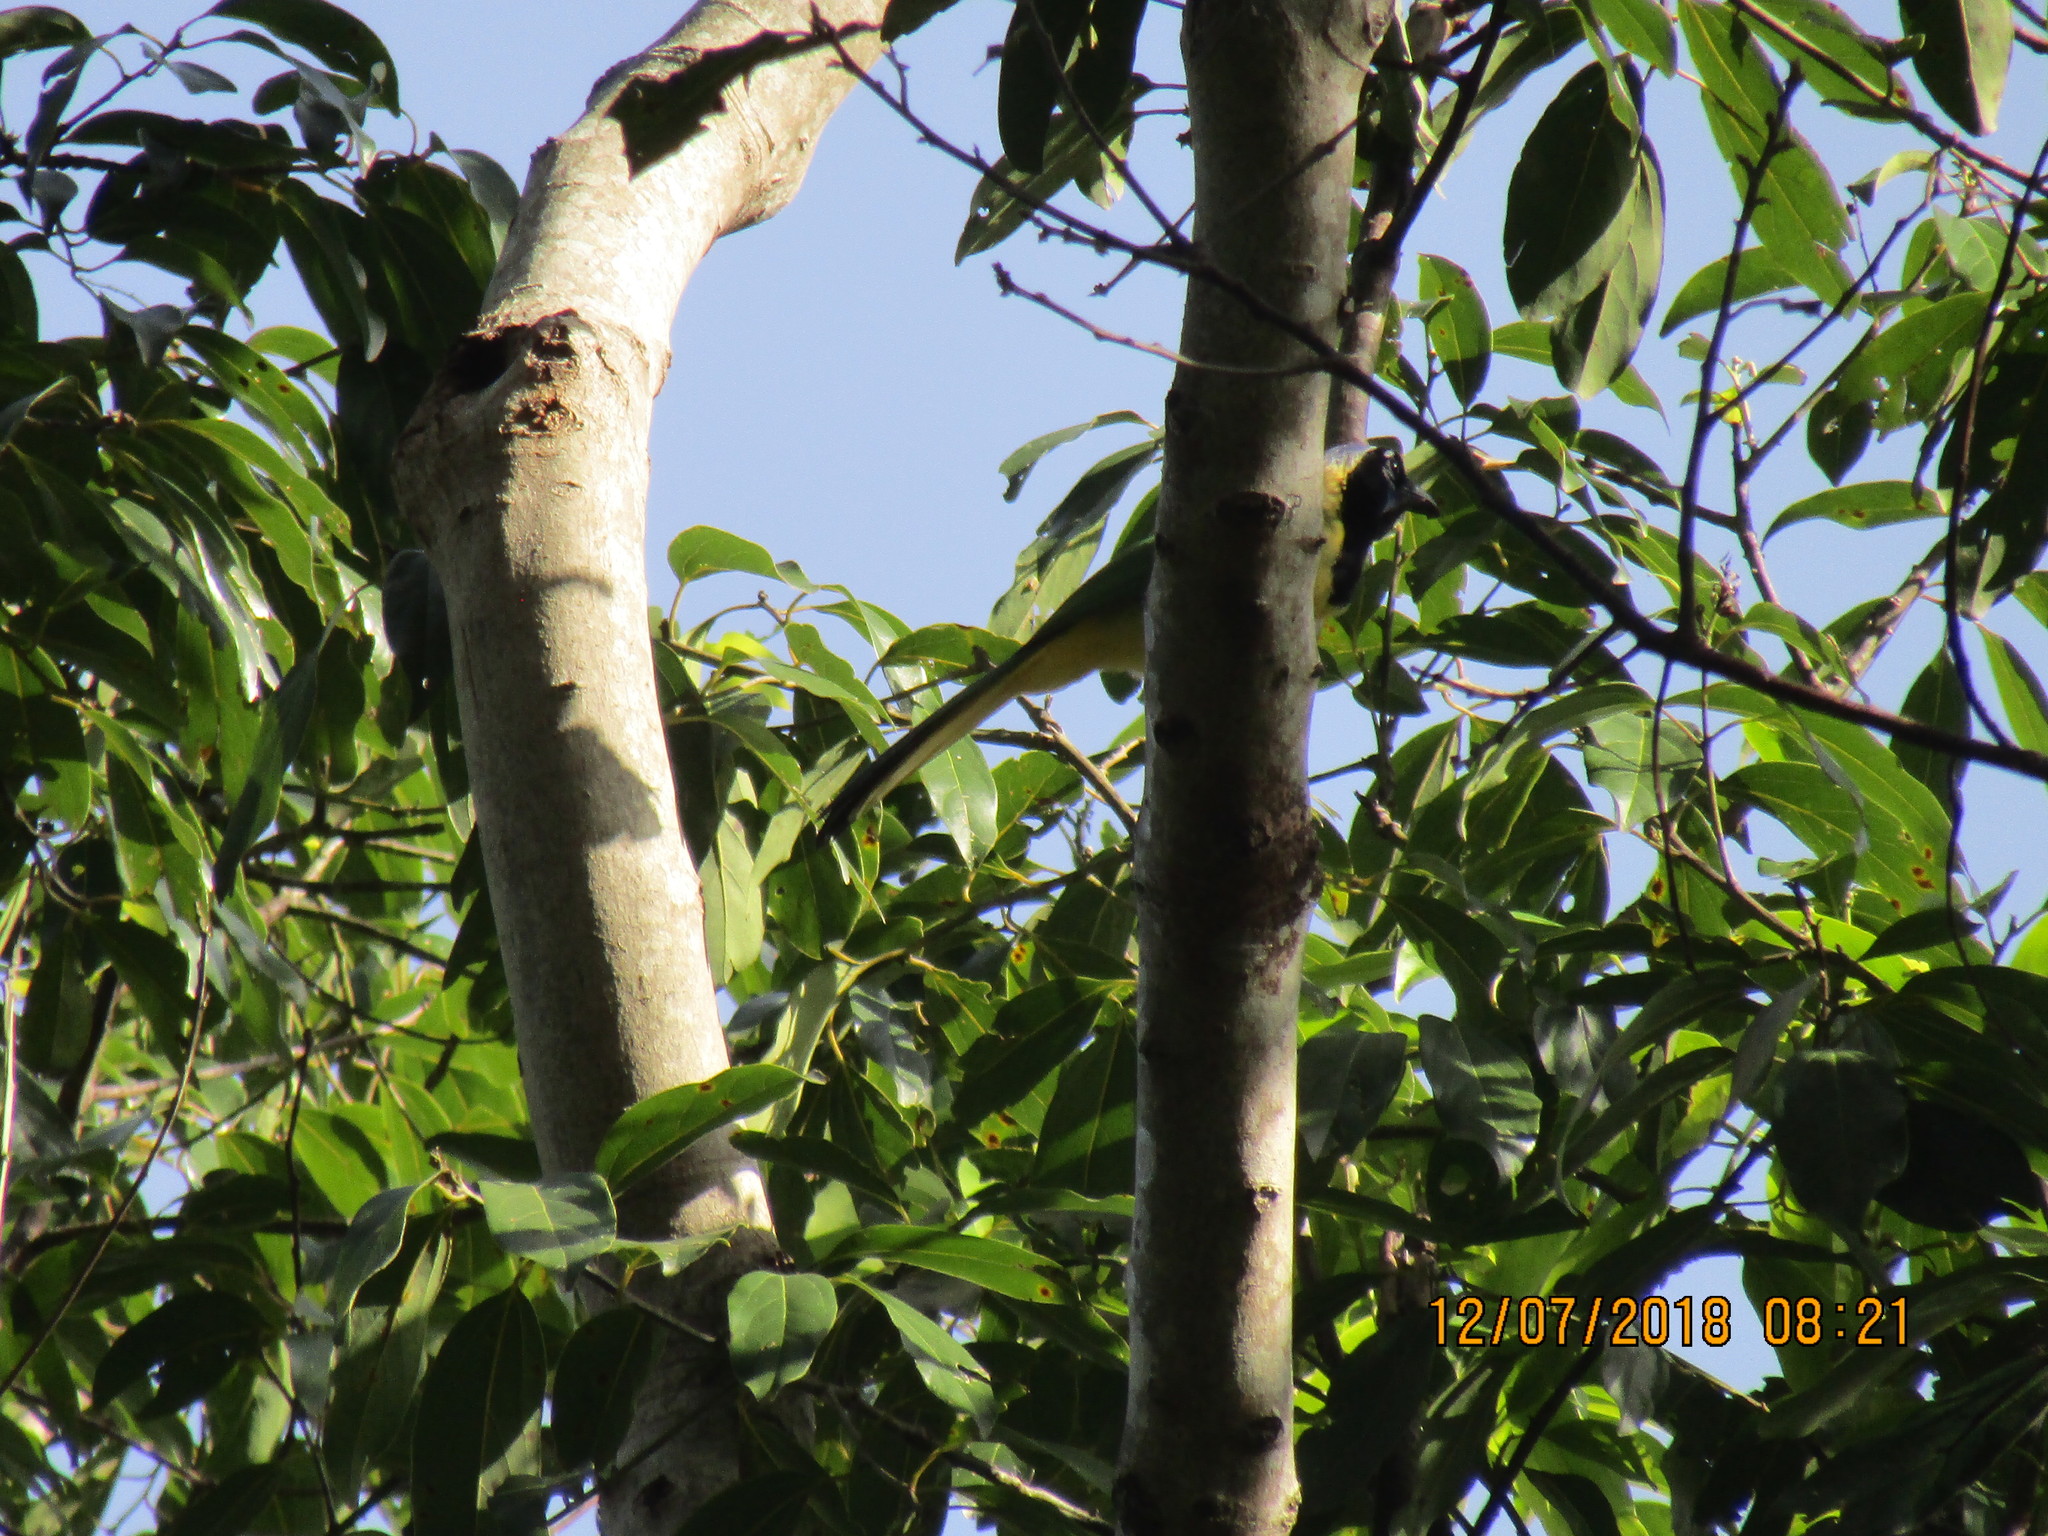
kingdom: Animalia
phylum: Chordata
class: Aves
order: Passeriformes
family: Corvidae
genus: Cyanocorax
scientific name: Cyanocorax yncas
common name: Green jay
